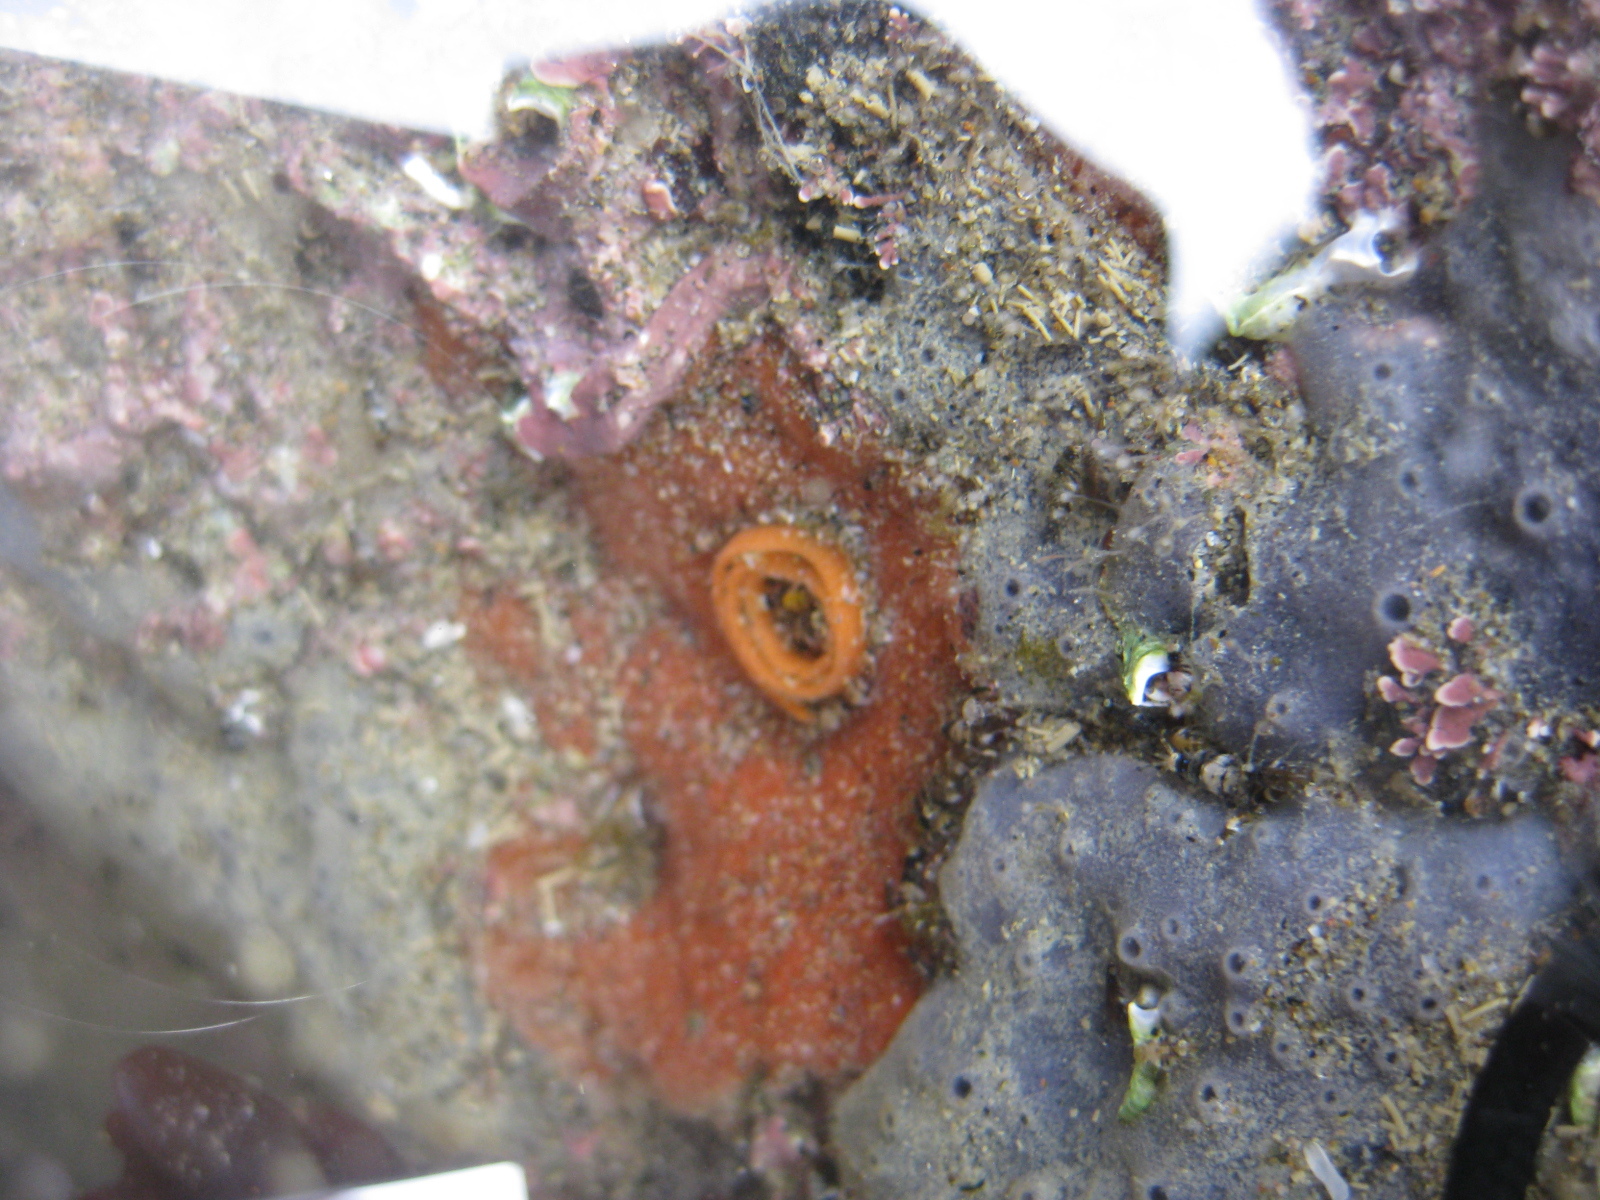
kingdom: Animalia
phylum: Mollusca
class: Gastropoda
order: Nudibranchia
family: Discodorididae
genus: Rostanga
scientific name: Rostanga muscula
